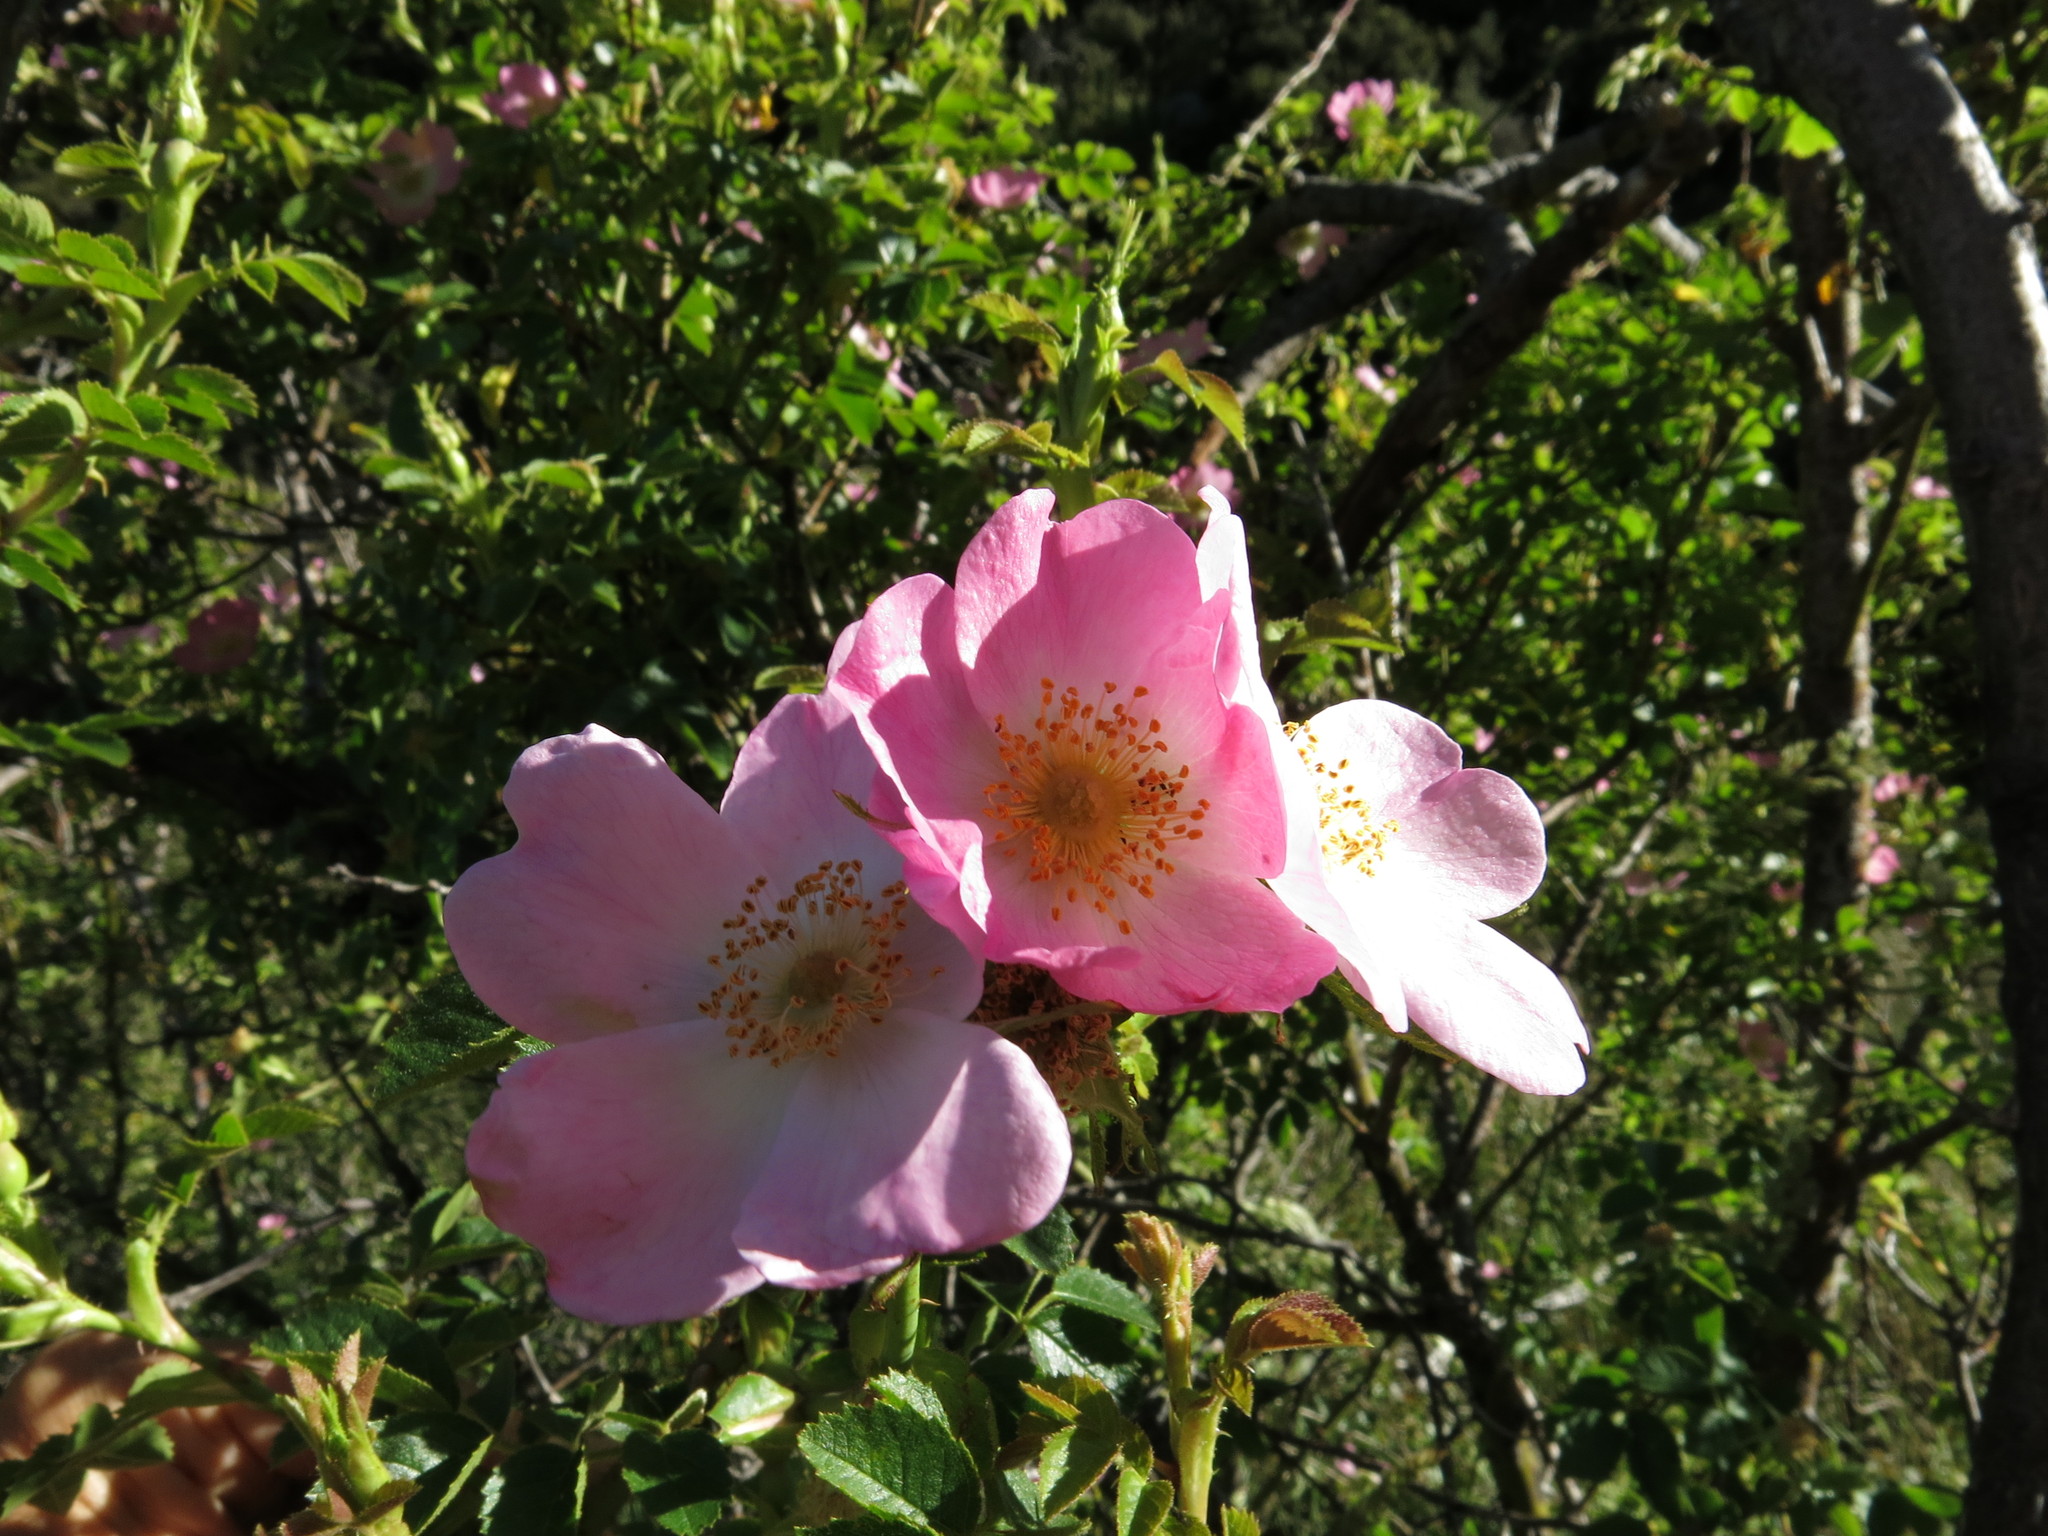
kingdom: Plantae
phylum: Tracheophyta
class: Magnoliopsida
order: Rosales
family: Rosaceae
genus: Rosa
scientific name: Rosa rubiginosa
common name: Sweet-briar
